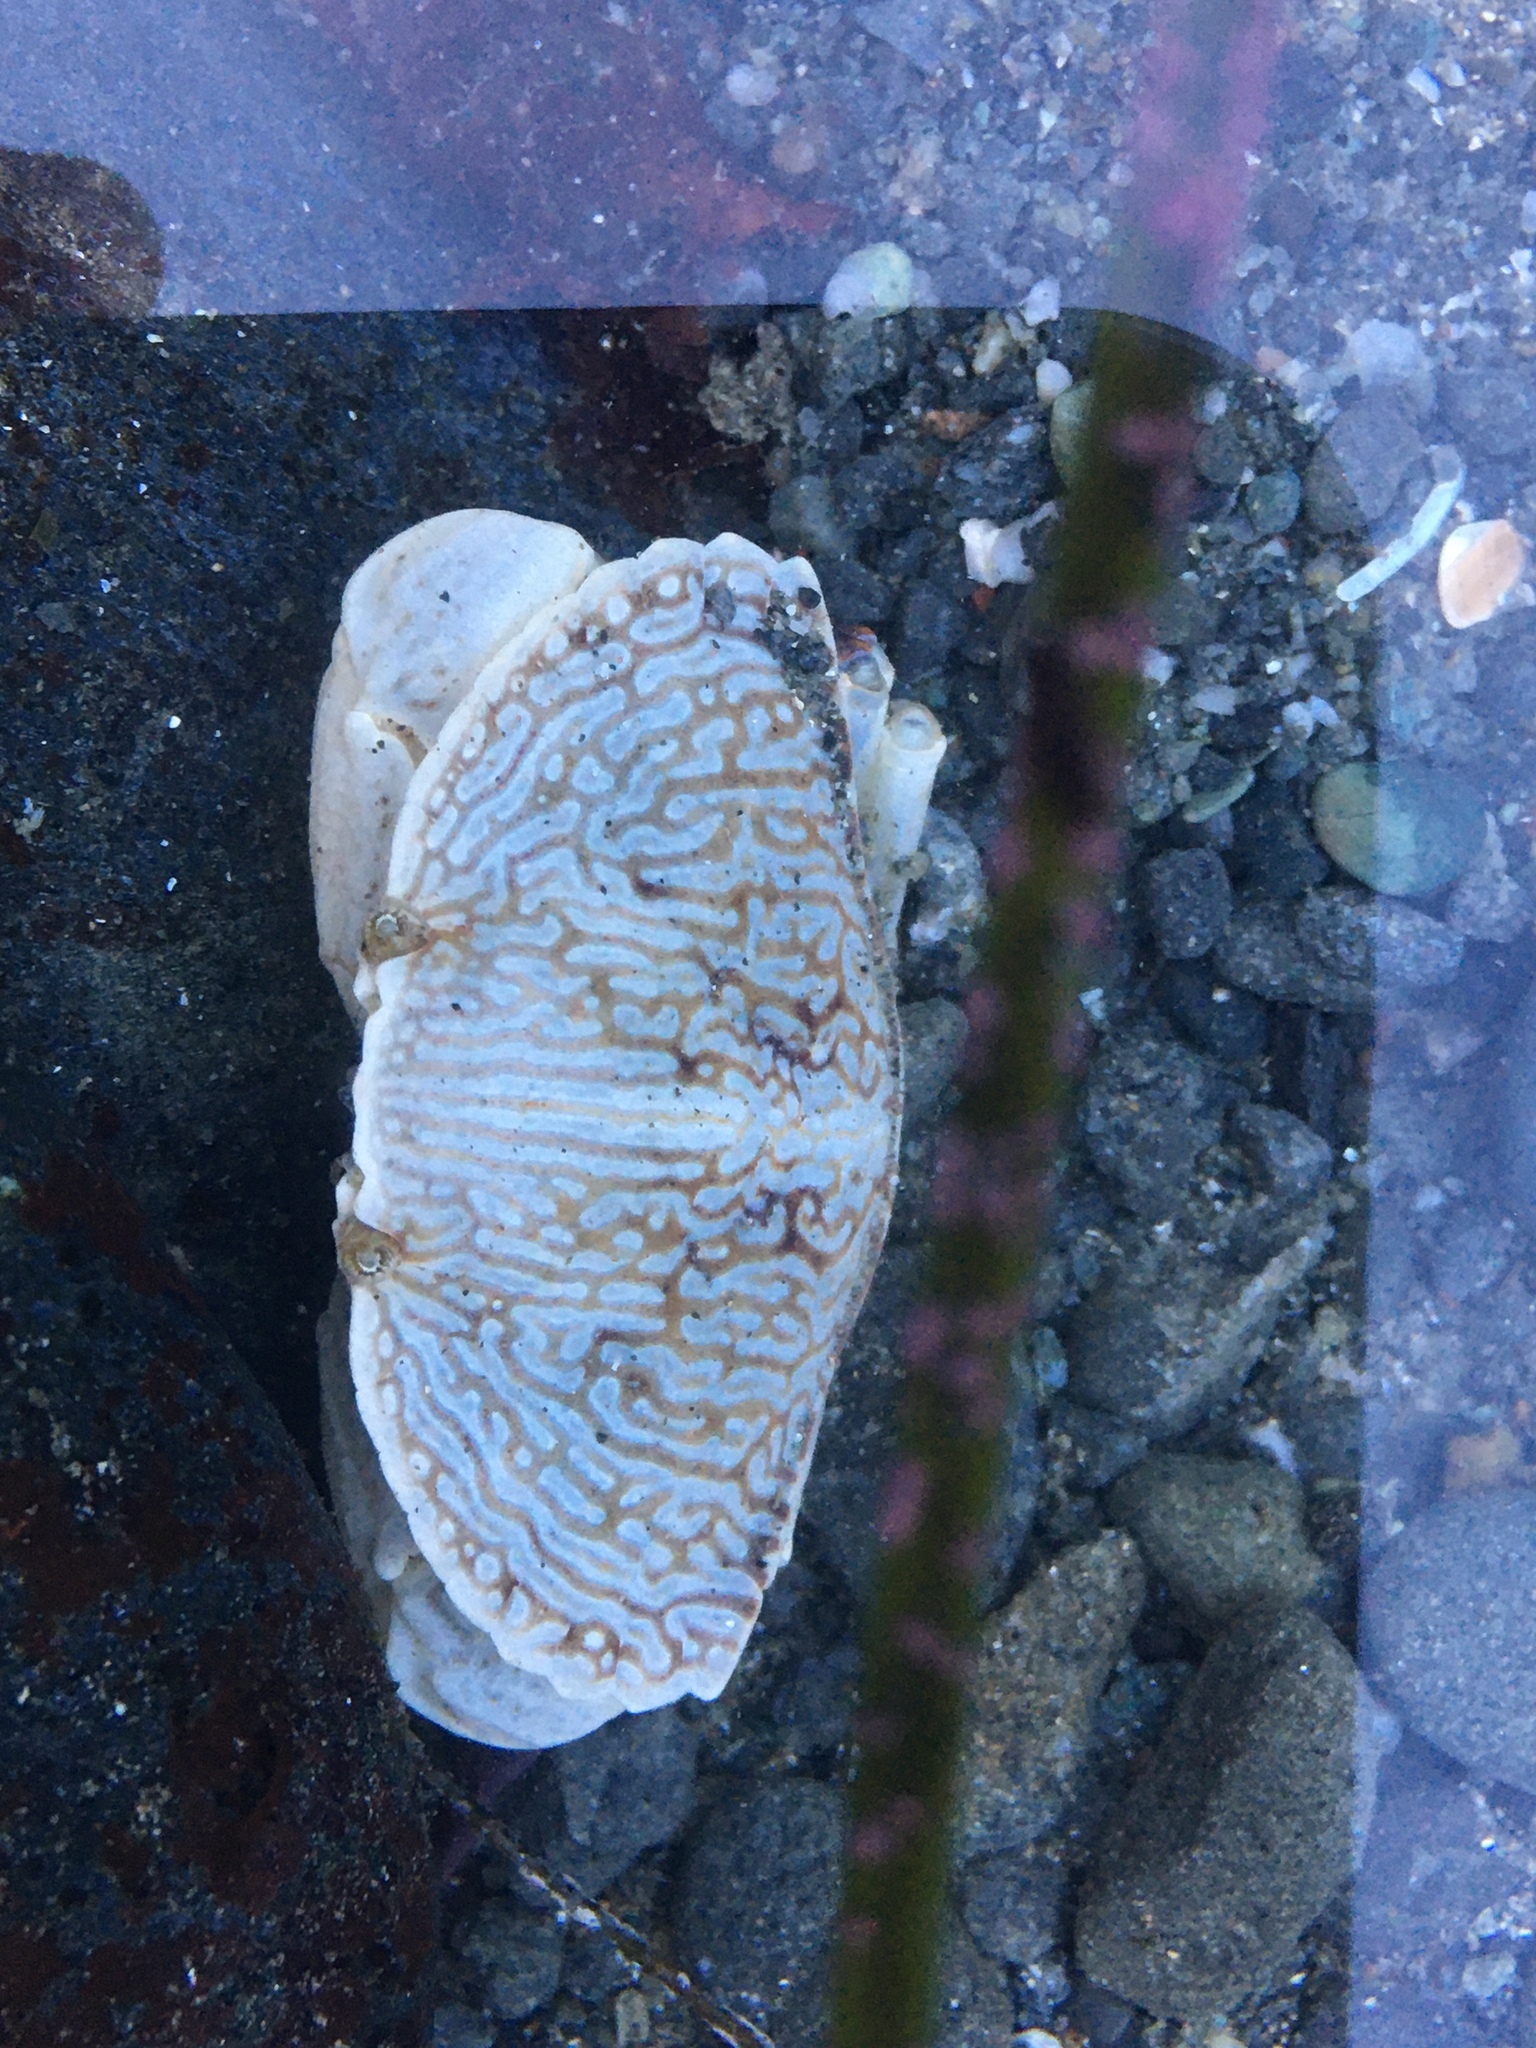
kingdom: Animalia
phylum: Arthropoda
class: Malacostraca
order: Decapoda
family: Cancridae
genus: Cancer
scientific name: Cancer productus
